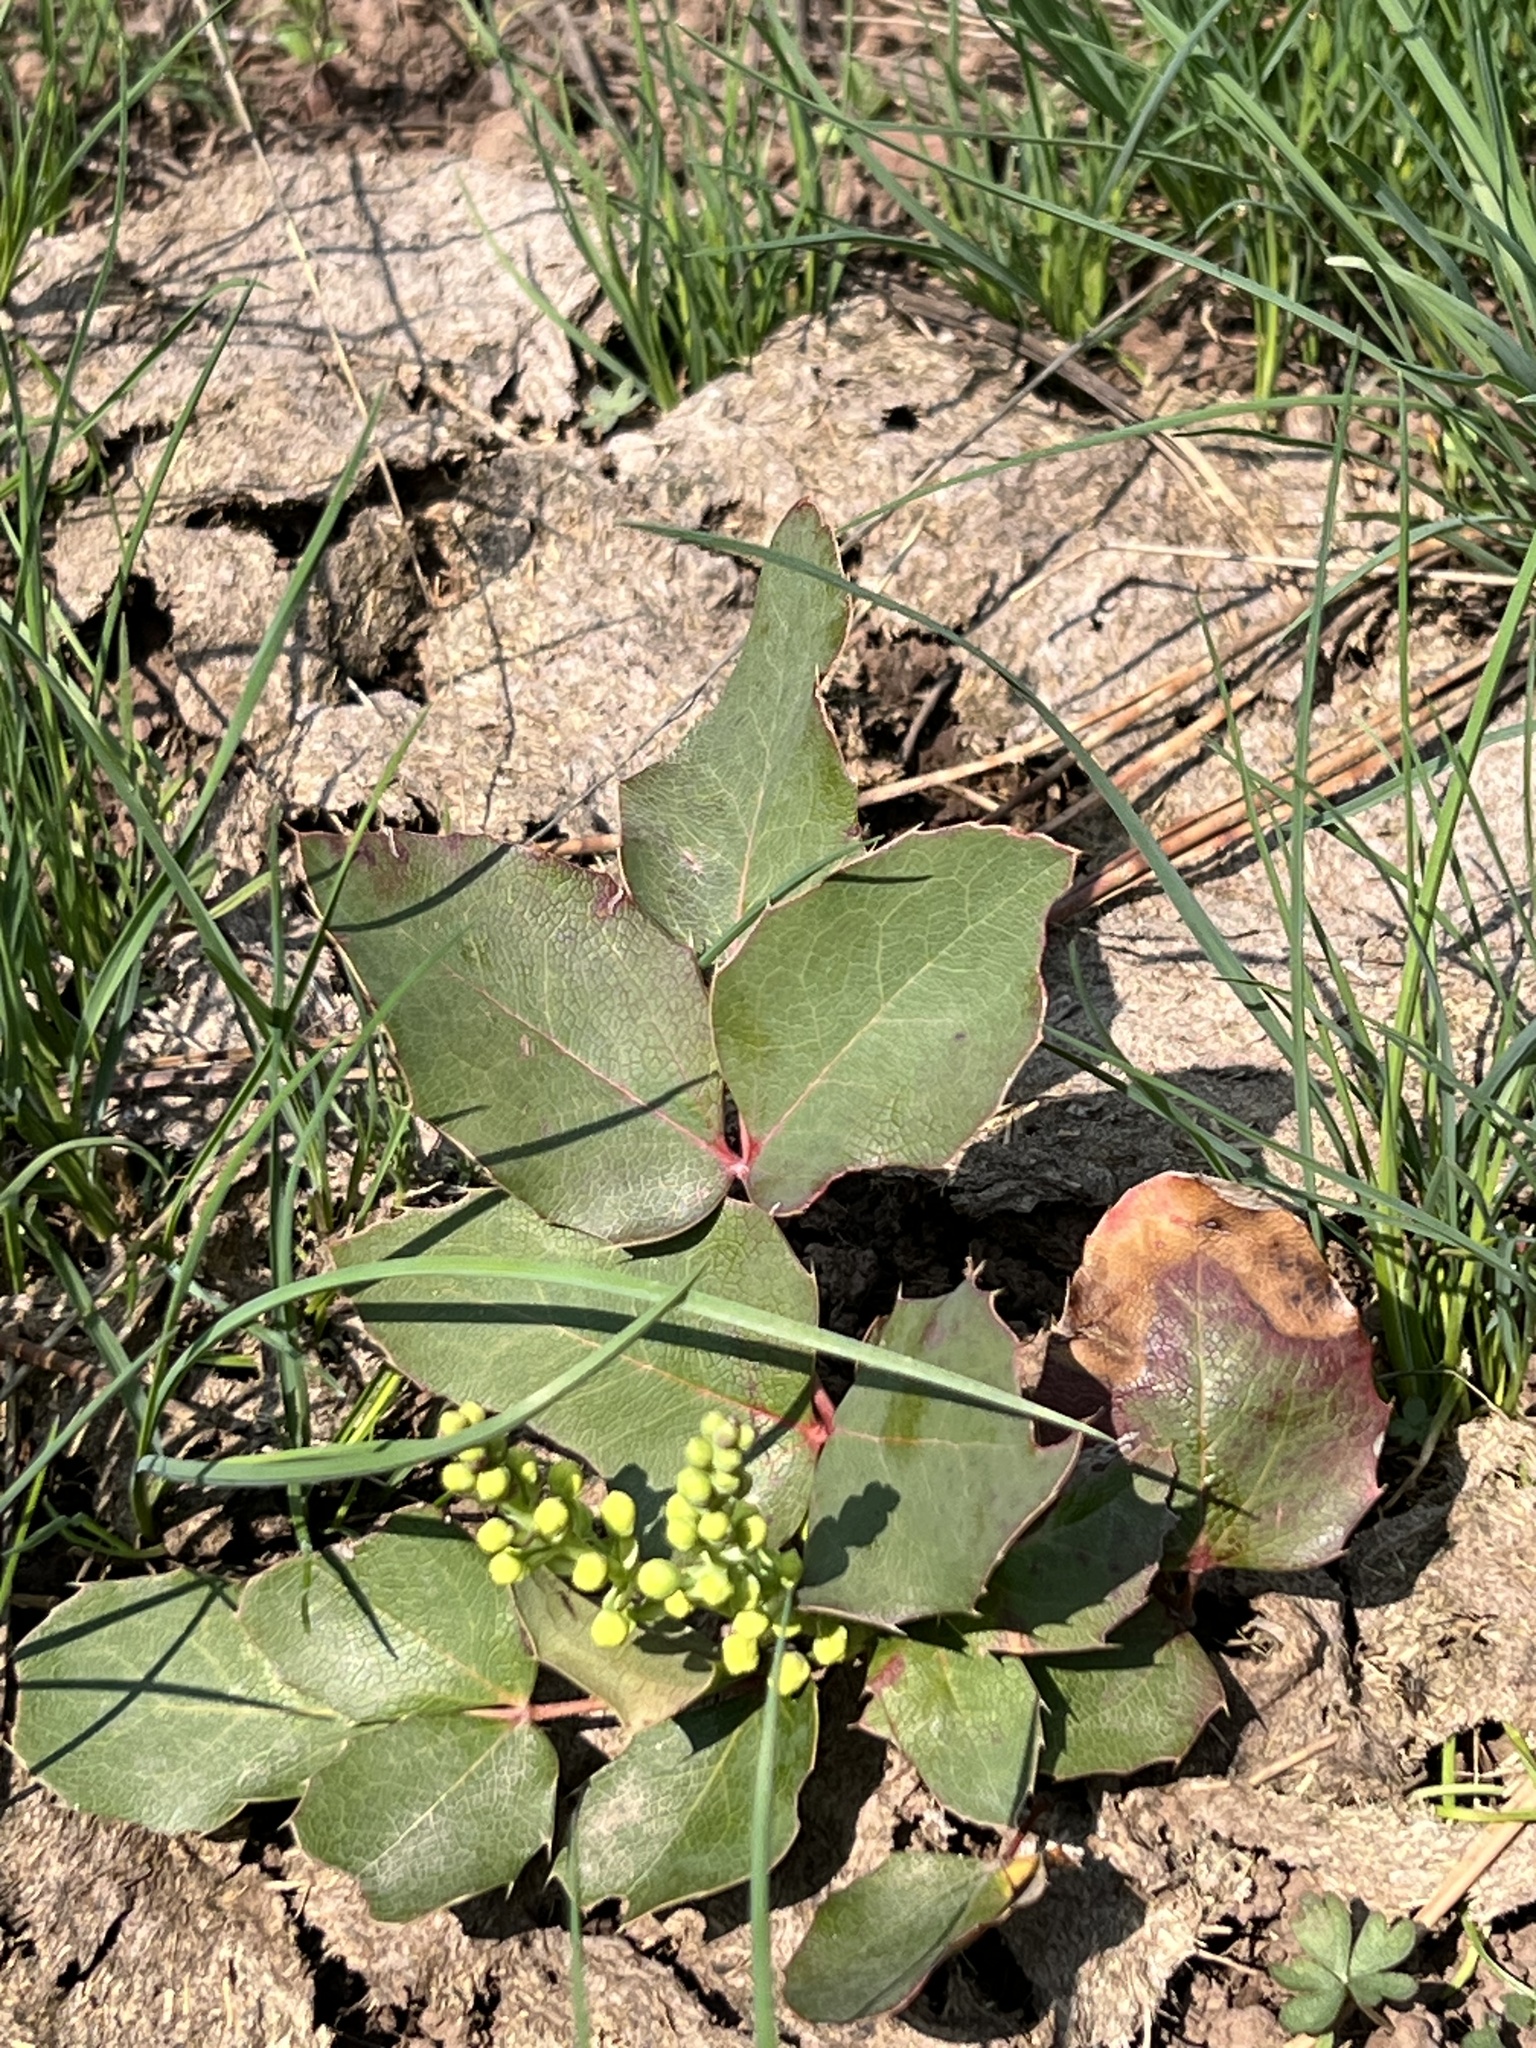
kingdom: Plantae
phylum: Tracheophyta
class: Magnoliopsida
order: Ranunculales
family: Berberidaceae
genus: Mahonia
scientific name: Mahonia repens
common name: Creeping oregon-grape
